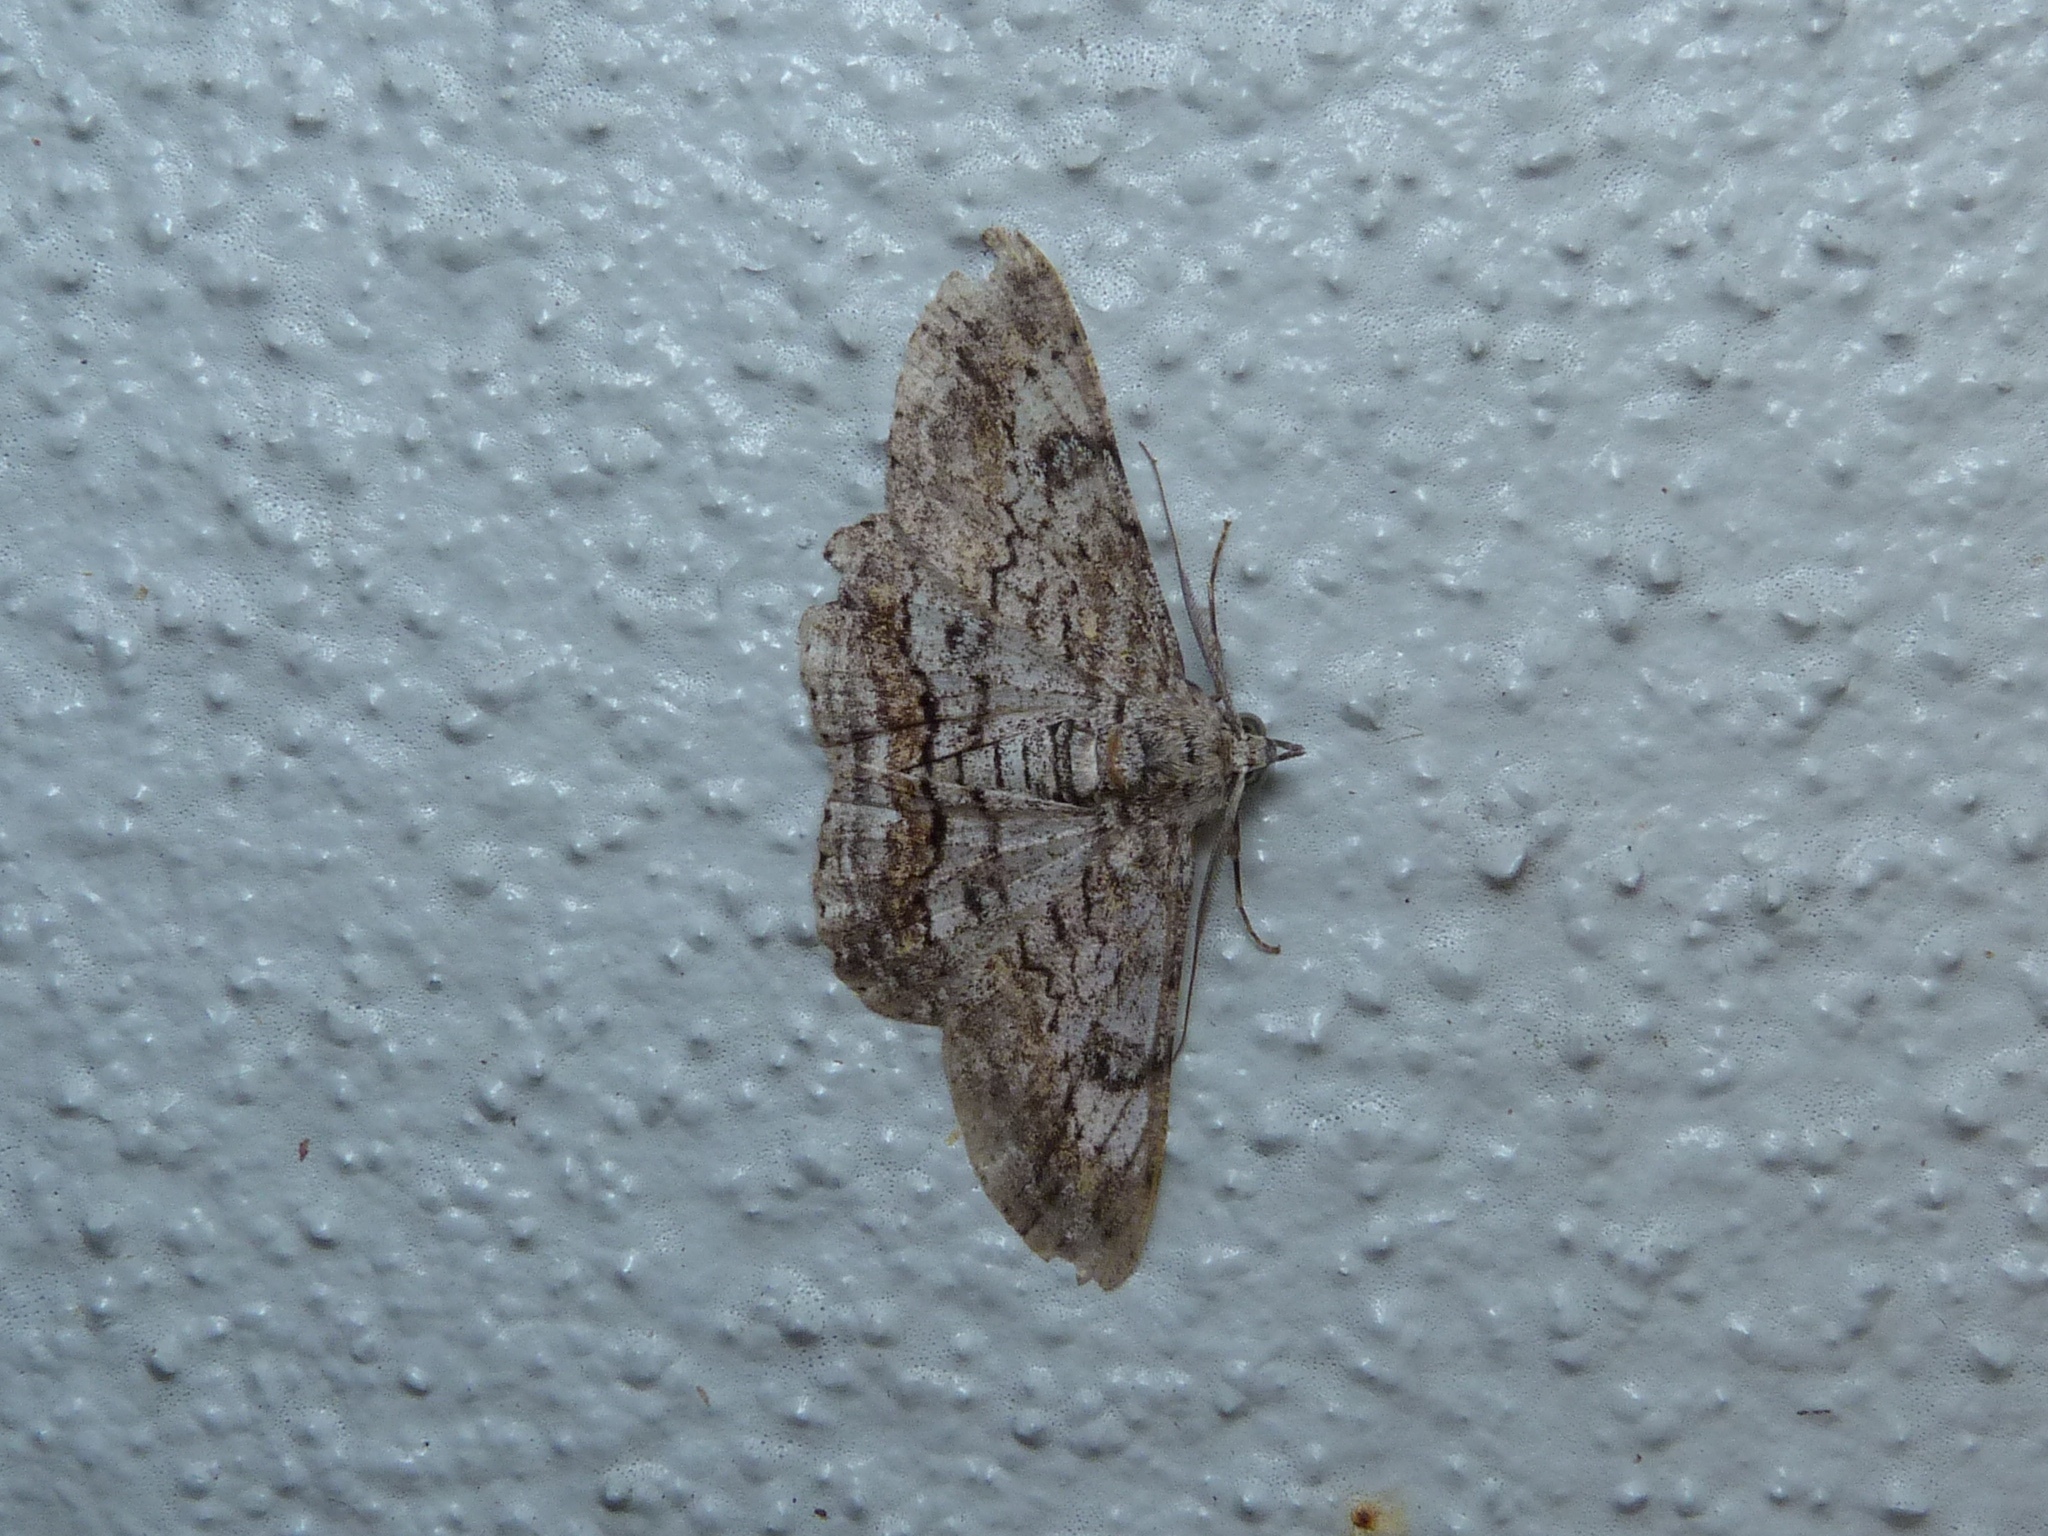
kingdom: Animalia
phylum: Arthropoda
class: Insecta
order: Lepidoptera
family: Geometridae
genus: Cleora
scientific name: Cleora injectaria
